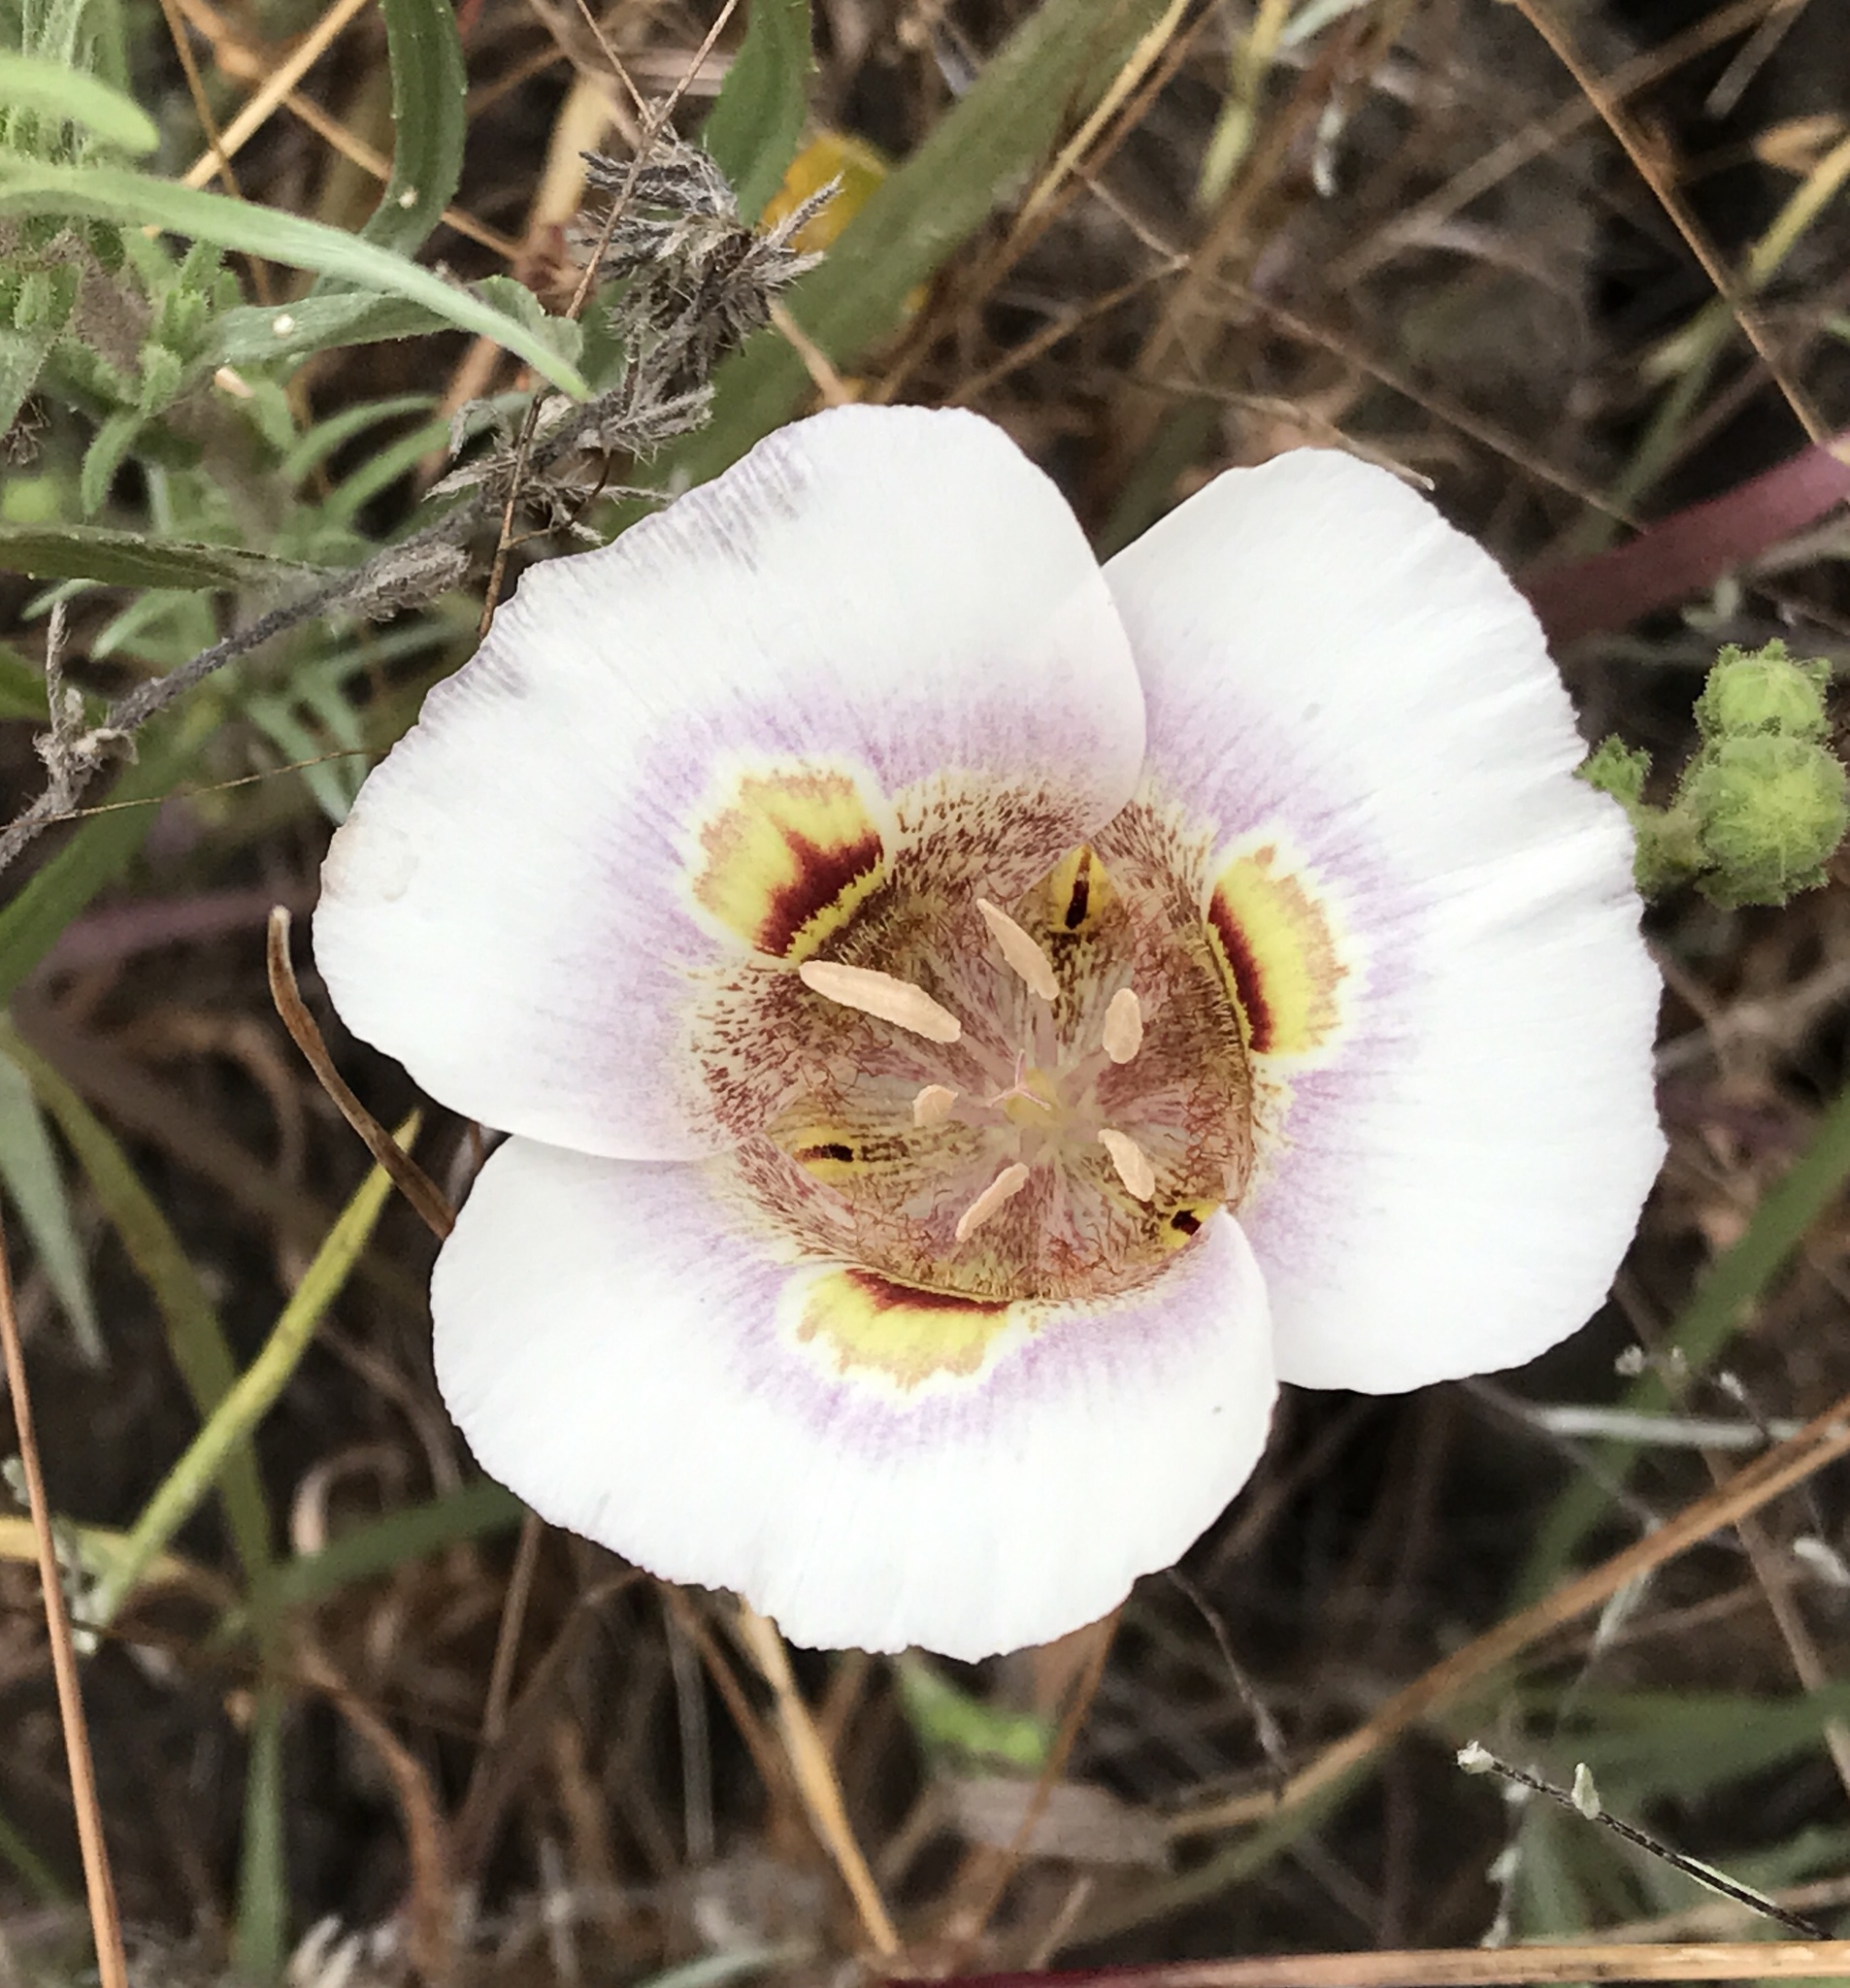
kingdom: Plantae
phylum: Tracheophyta
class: Liliopsida
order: Liliales
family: Liliaceae
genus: Calochortus
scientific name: Calochortus argillosus
